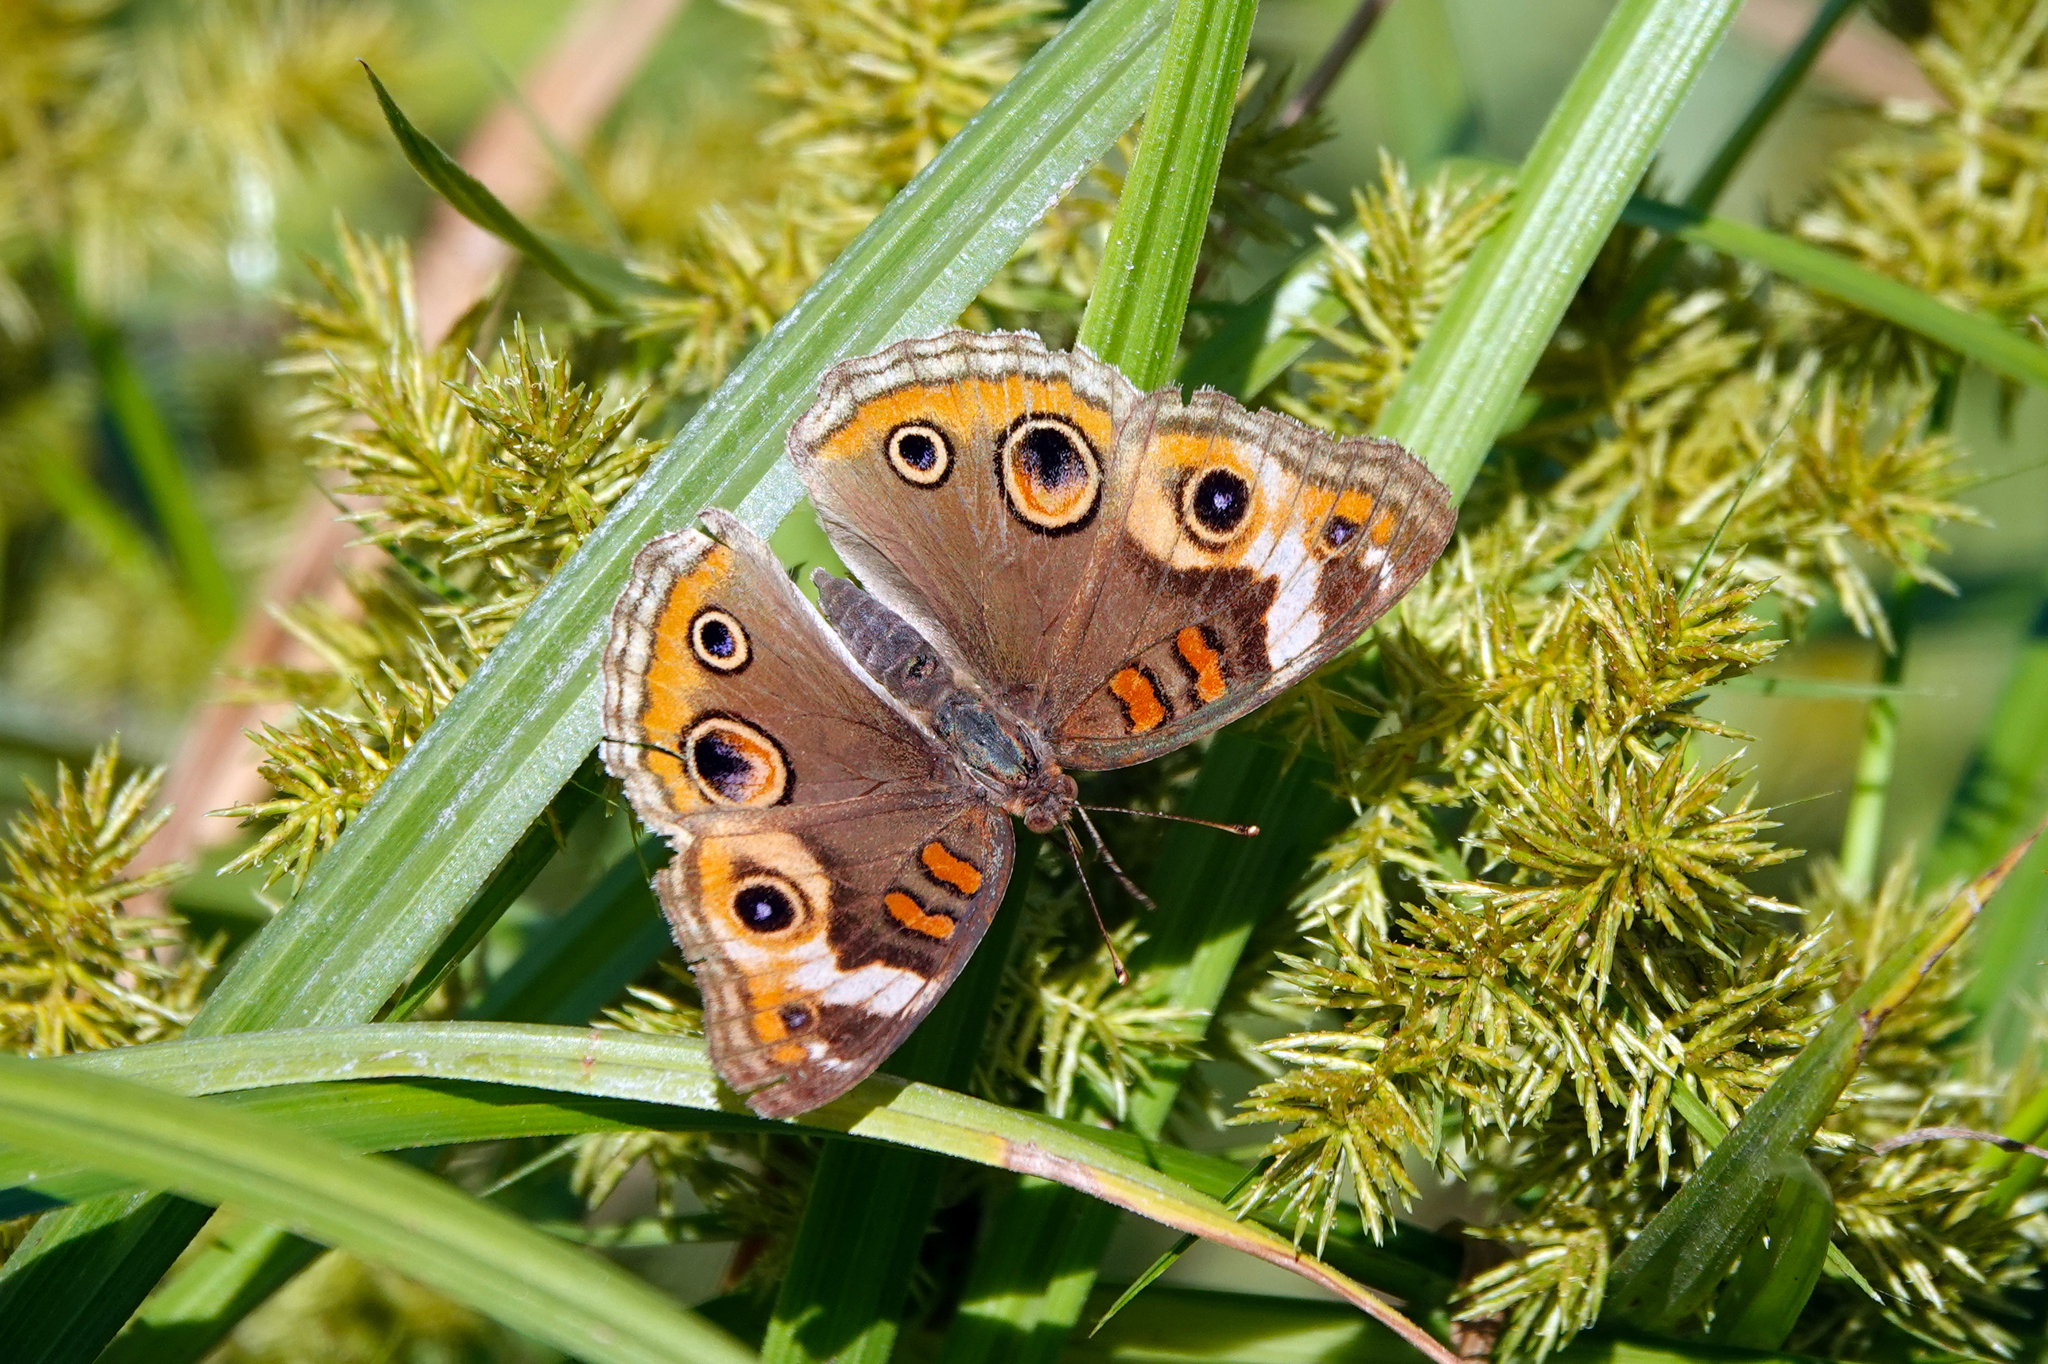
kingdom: Animalia
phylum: Arthropoda
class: Insecta
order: Lepidoptera
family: Nymphalidae
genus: Junonia
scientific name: Junonia coenia
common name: Common buckeye
